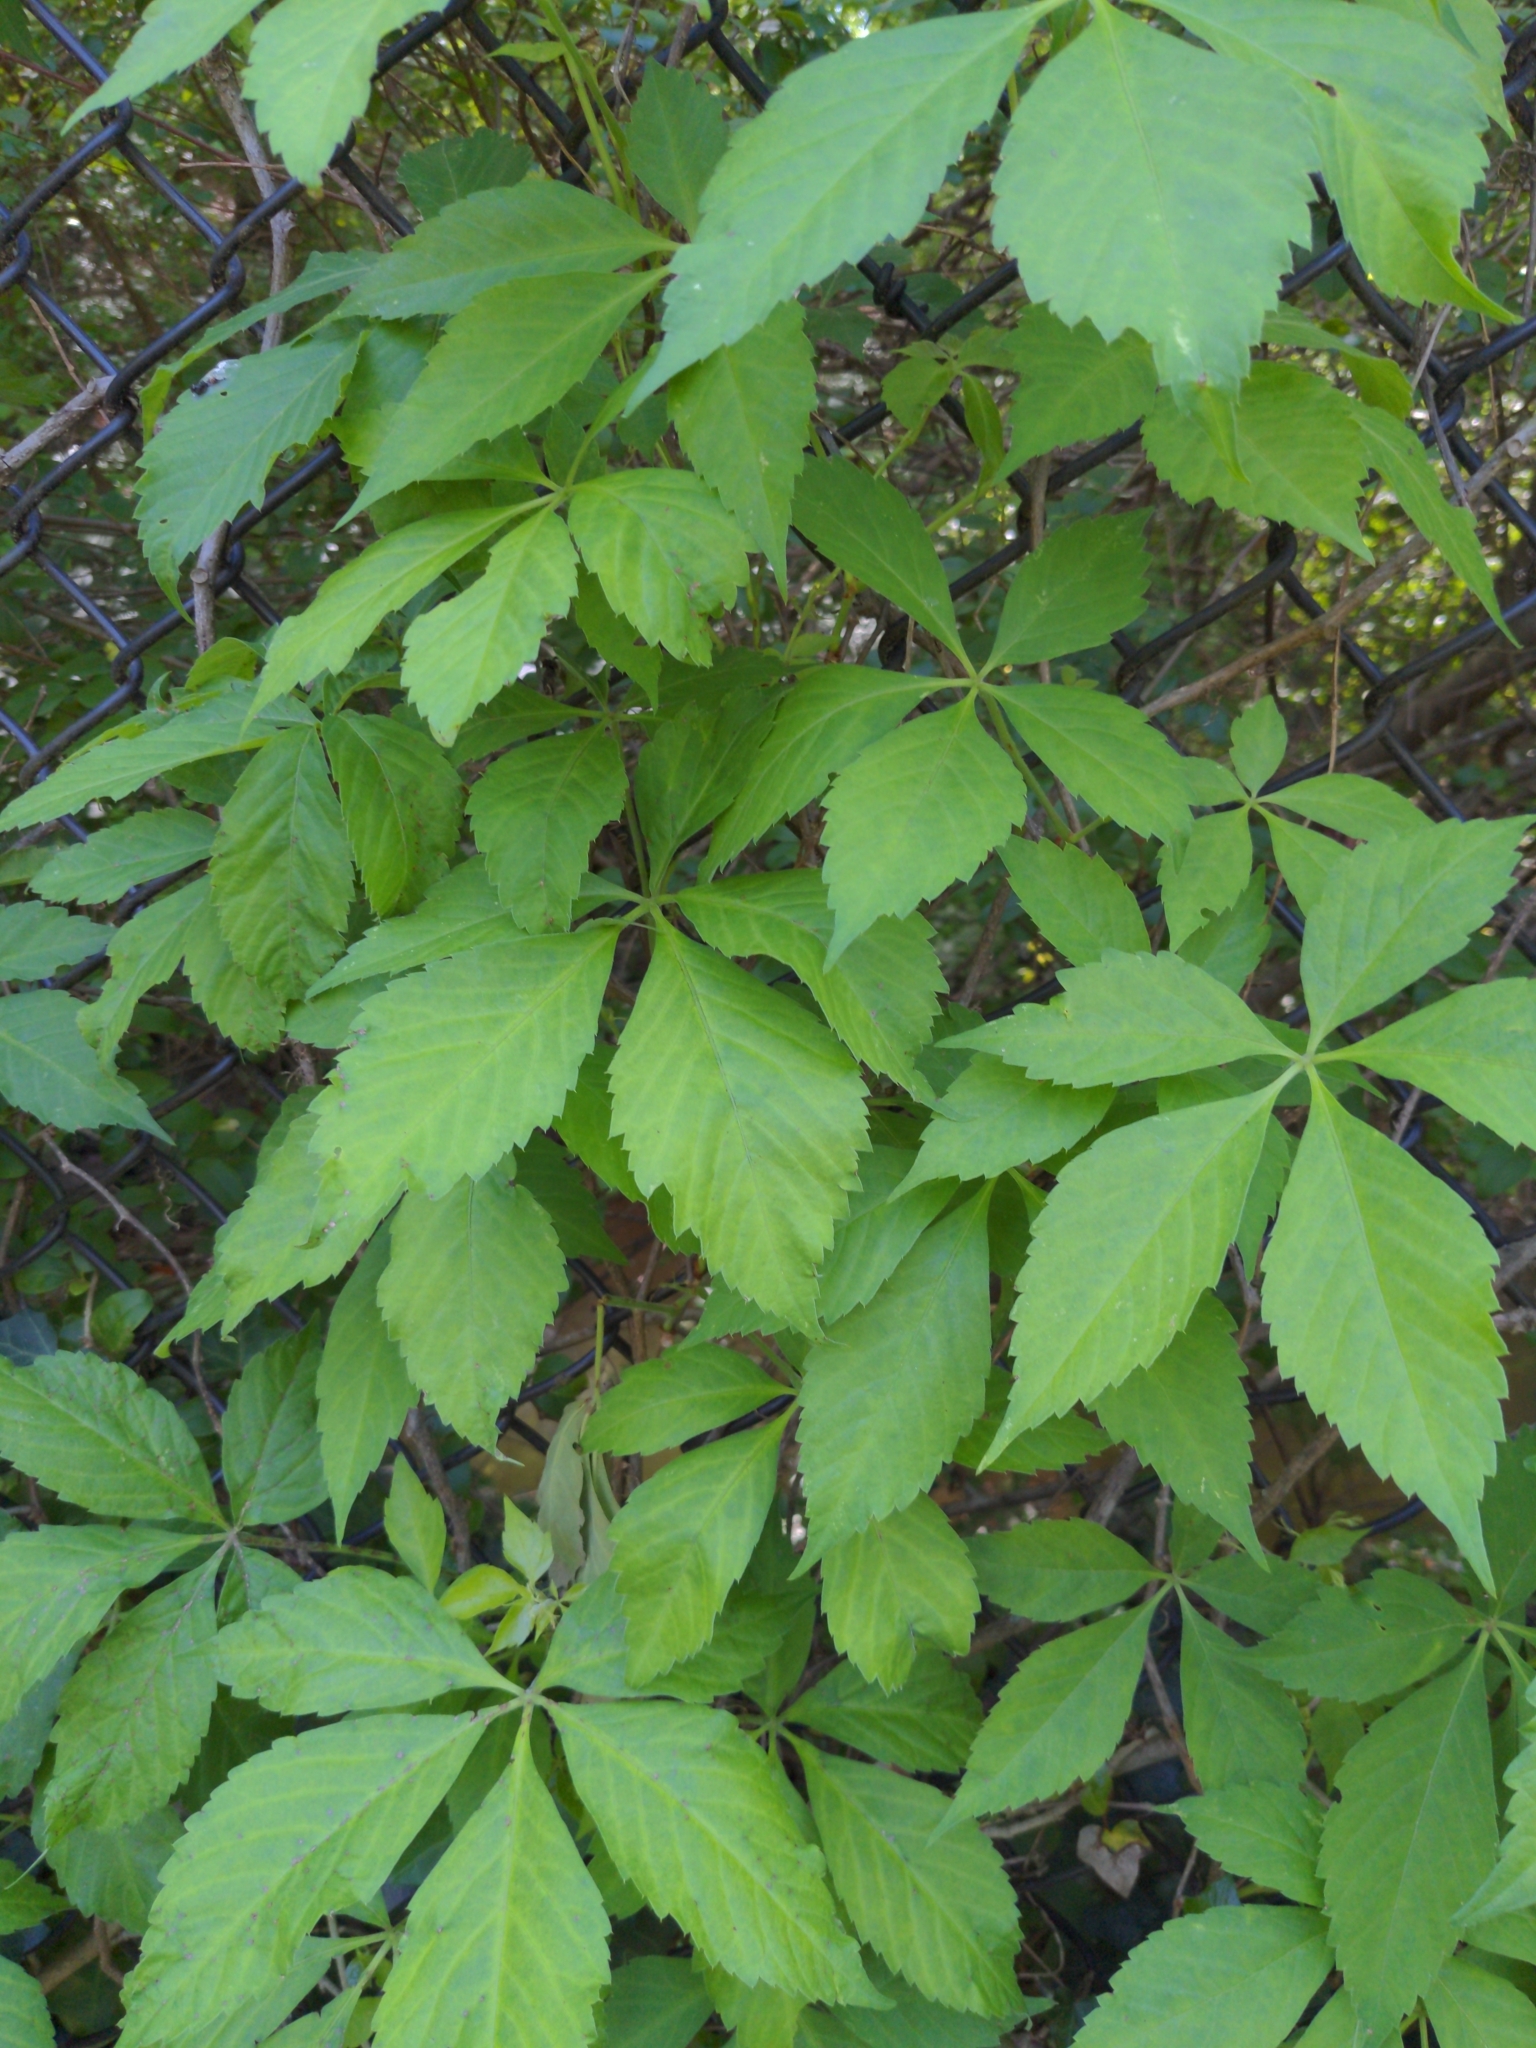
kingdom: Plantae
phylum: Tracheophyta
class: Magnoliopsida
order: Vitales
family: Vitaceae
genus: Parthenocissus
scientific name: Parthenocissus quinquefolia
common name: Virginia-creeper
